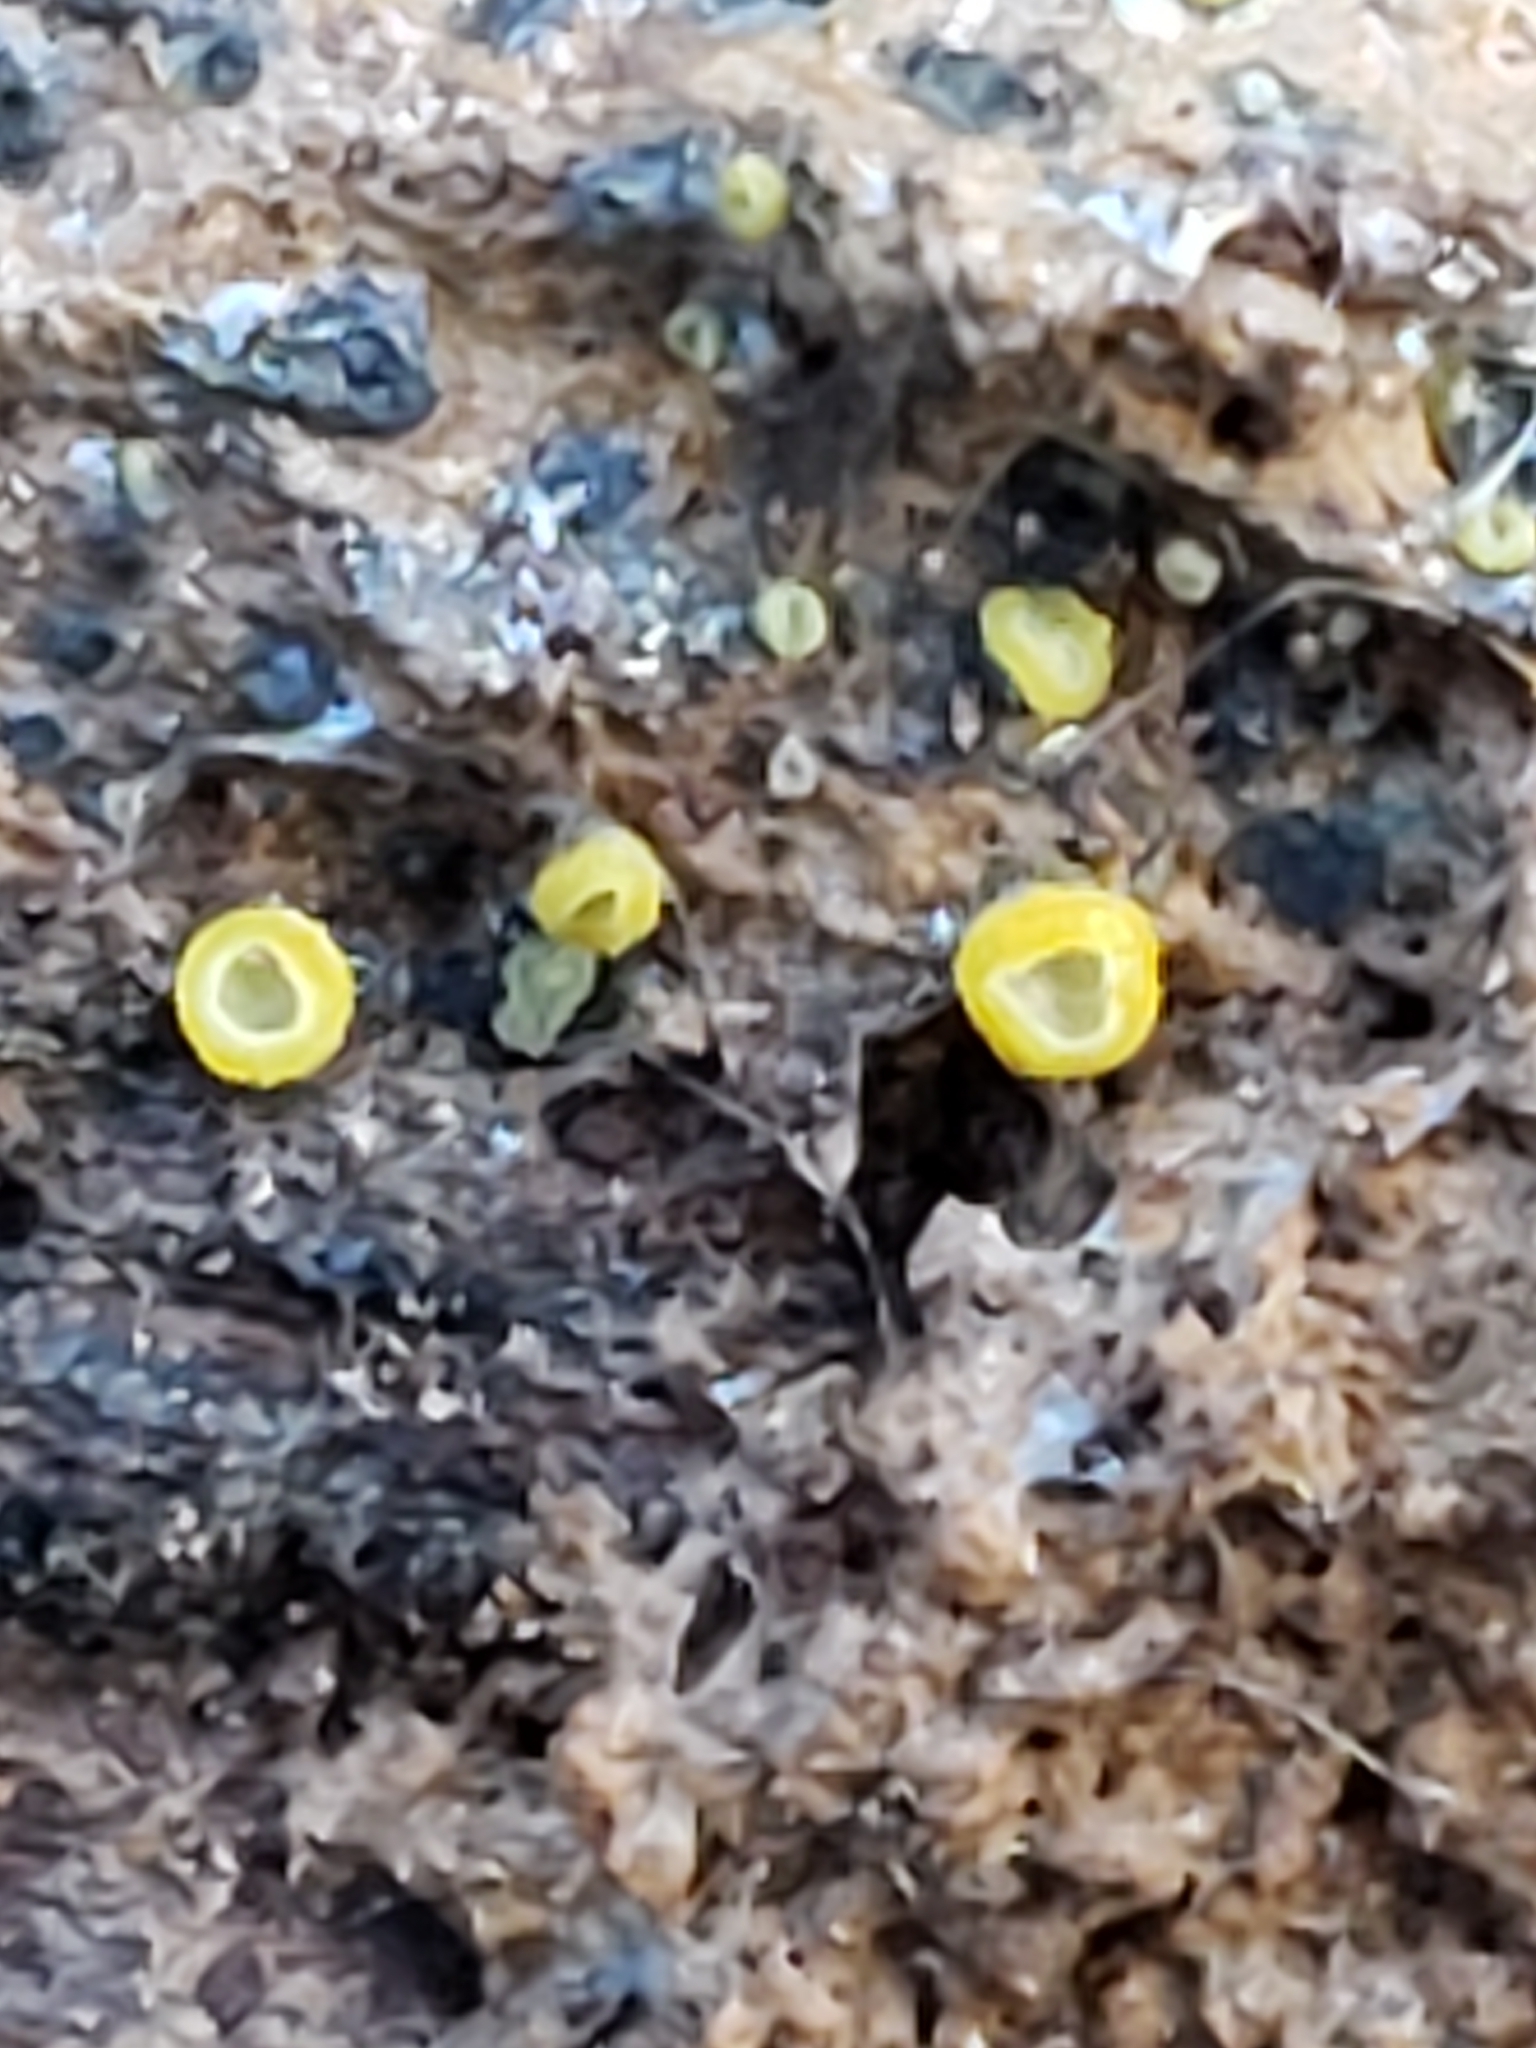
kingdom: Fungi
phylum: Ascomycota
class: Leotiomycetes
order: Helotiales
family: Chlorospleniaceae
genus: Chlorosplenium
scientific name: Chlorosplenium chlora
